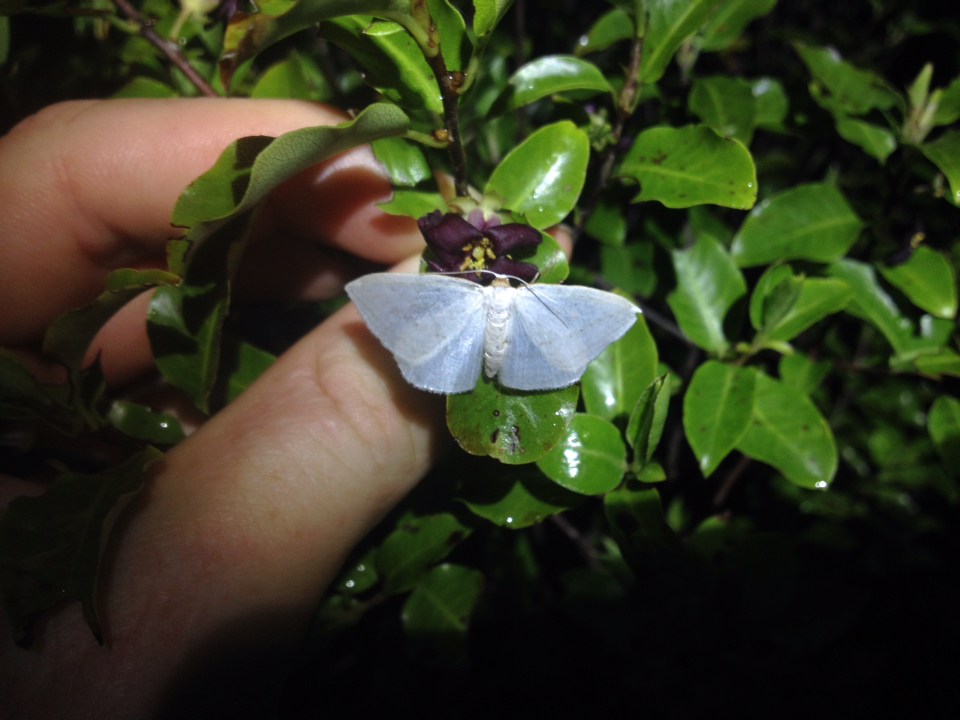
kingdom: Animalia
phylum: Arthropoda
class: Insecta
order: Lepidoptera
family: Geometridae
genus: Orthoclydon
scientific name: Orthoclydon praefectata
